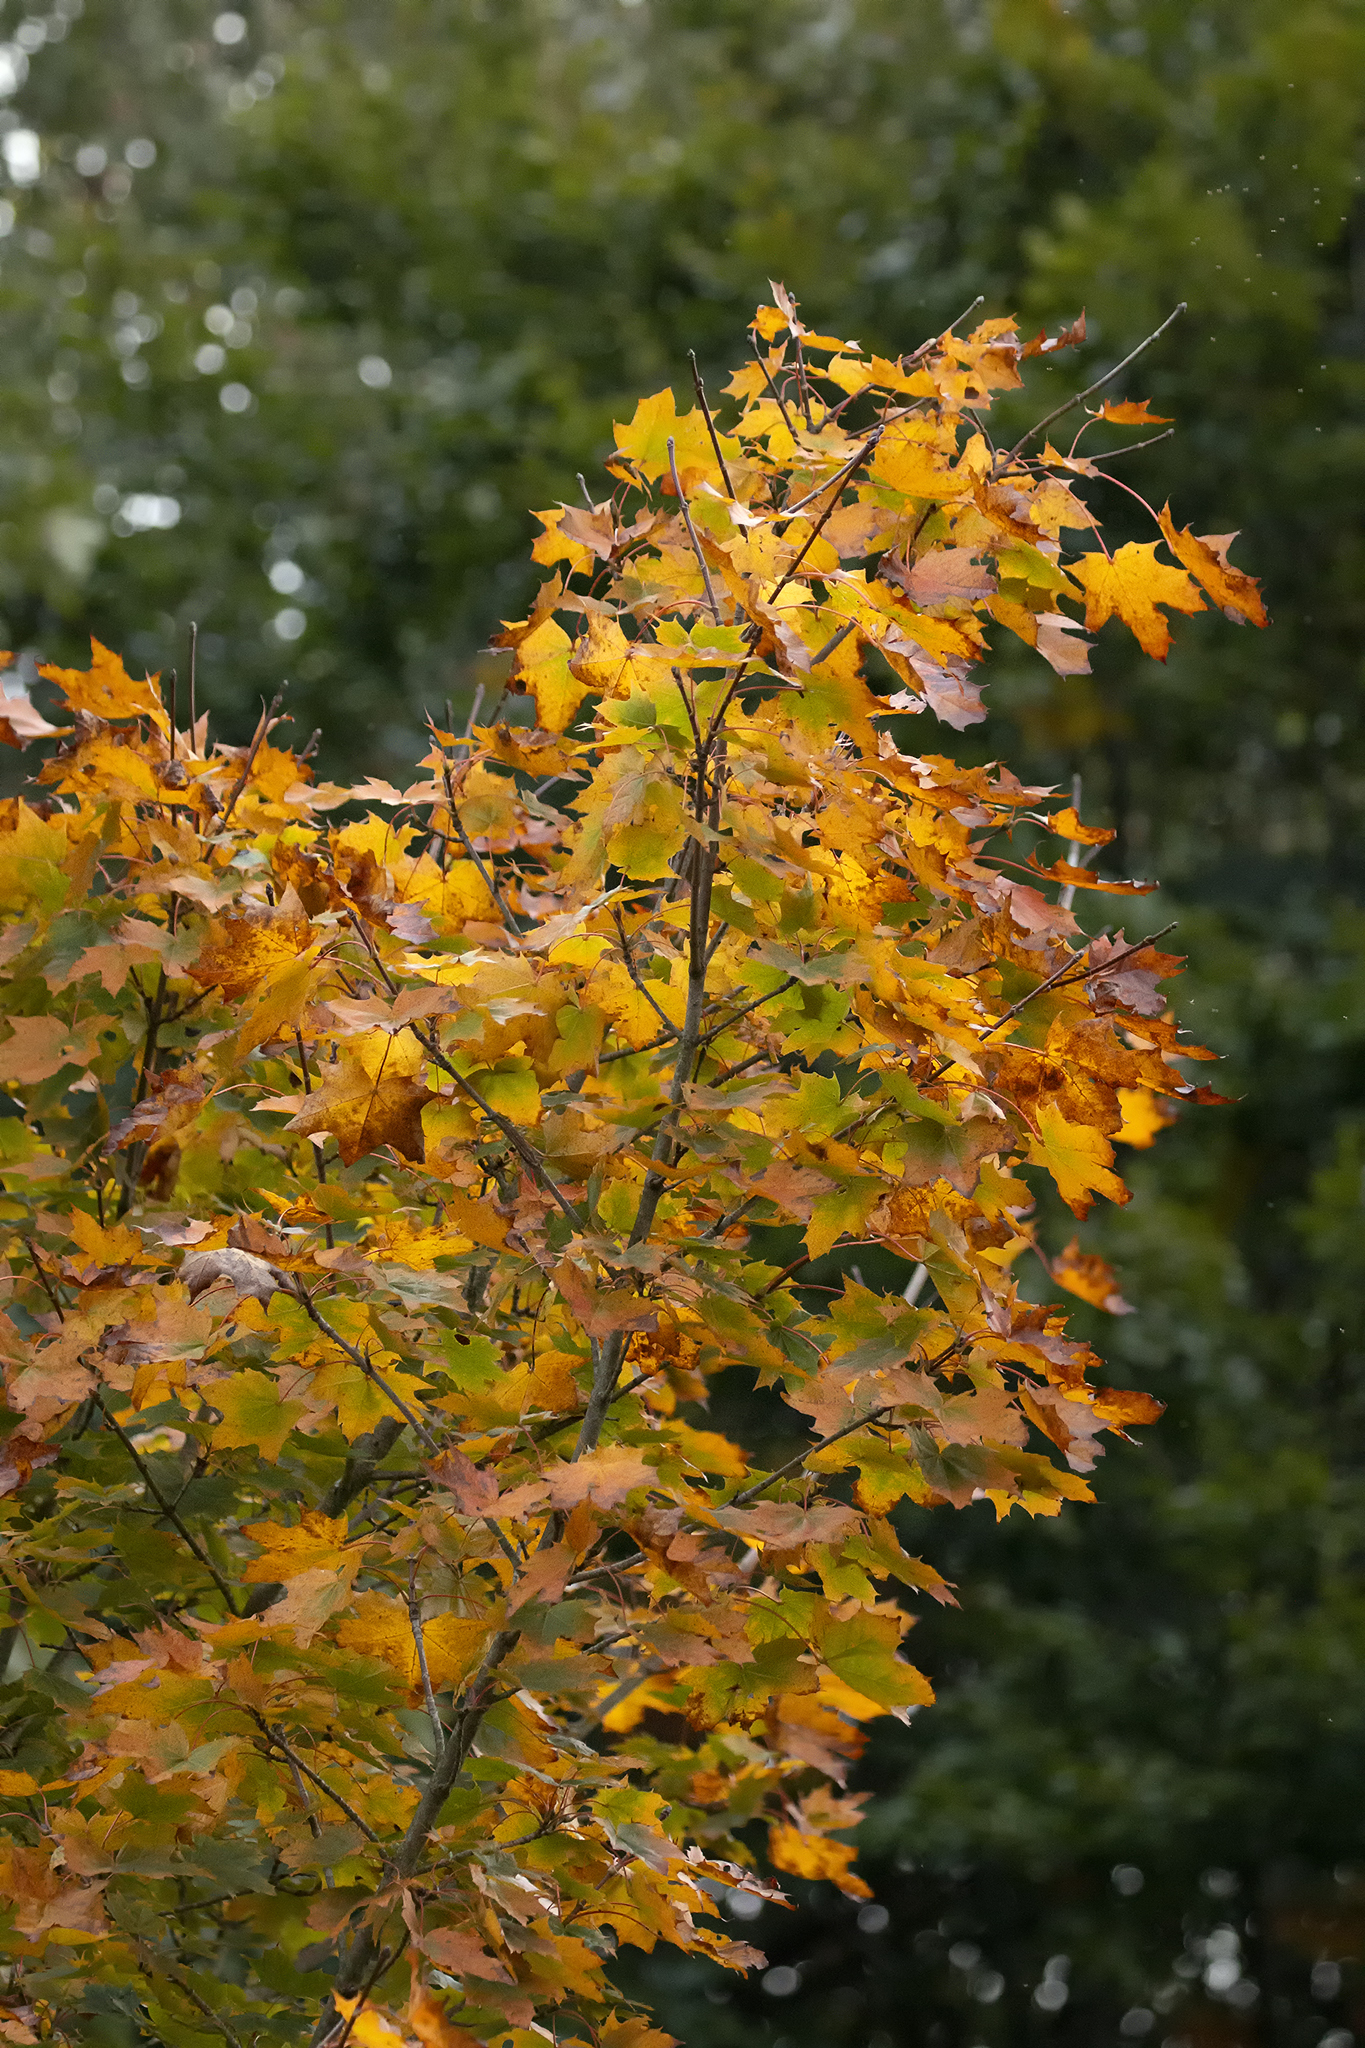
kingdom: Plantae
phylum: Tracheophyta
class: Magnoliopsida
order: Sapindales
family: Sapindaceae
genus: Acer
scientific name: Acer platanoides
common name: Norway maple
